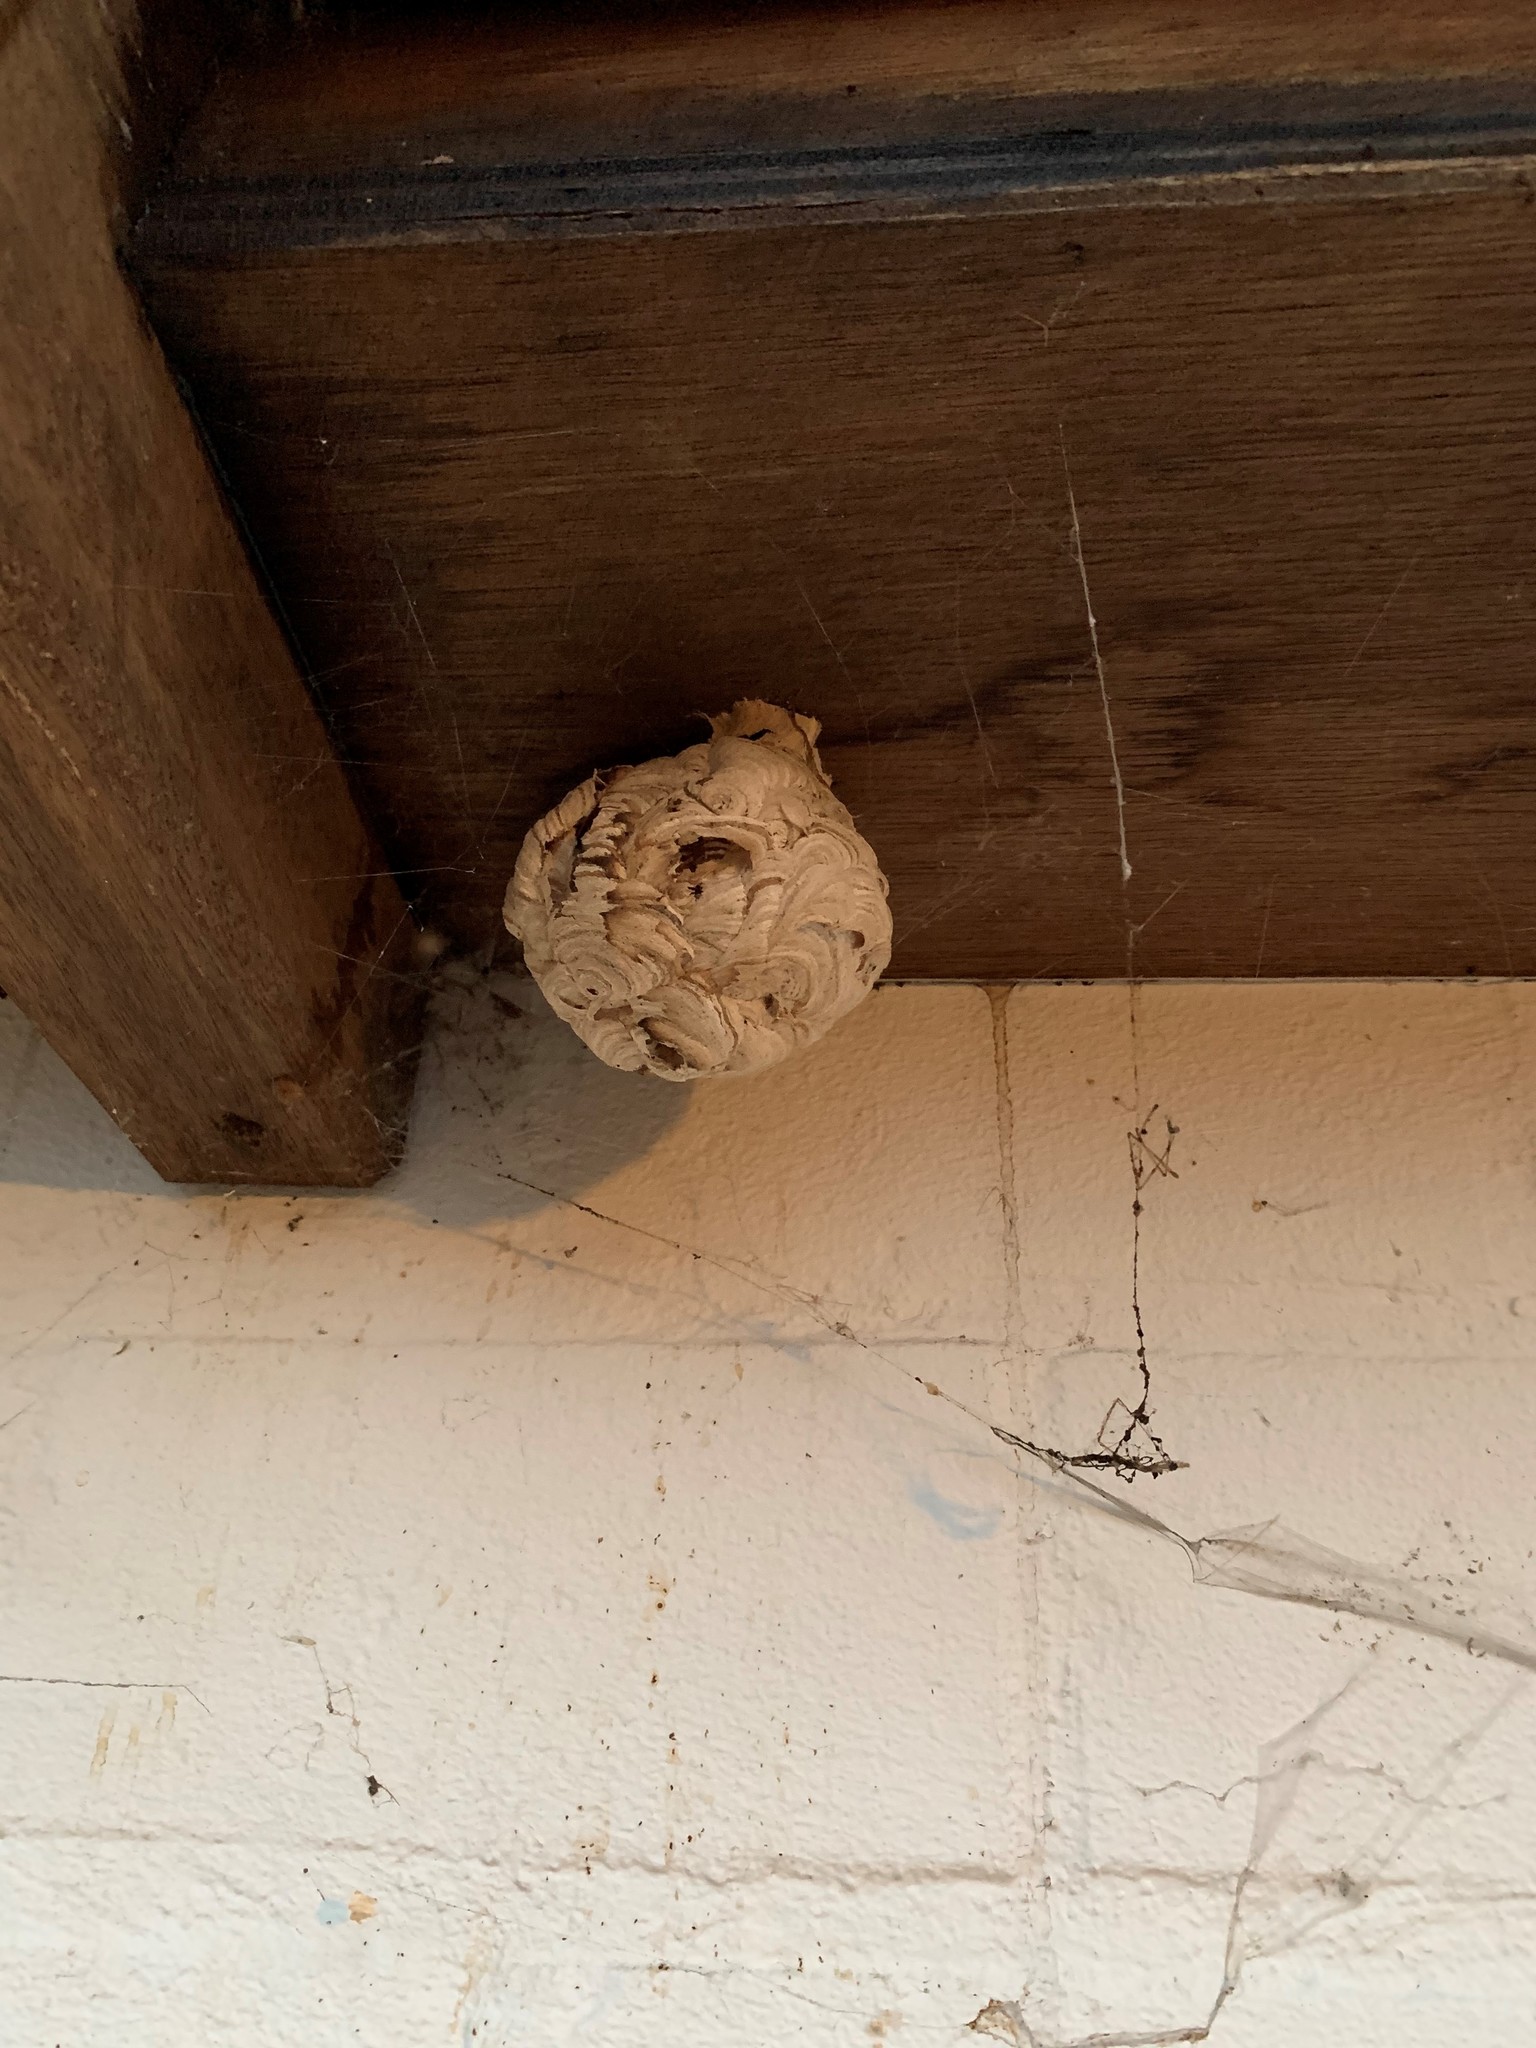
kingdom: Animalia
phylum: Arthropoda
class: Insecta
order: Hymenoptera
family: Vespidae
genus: Vespa
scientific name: Vespa velutina
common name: Asian hornet
